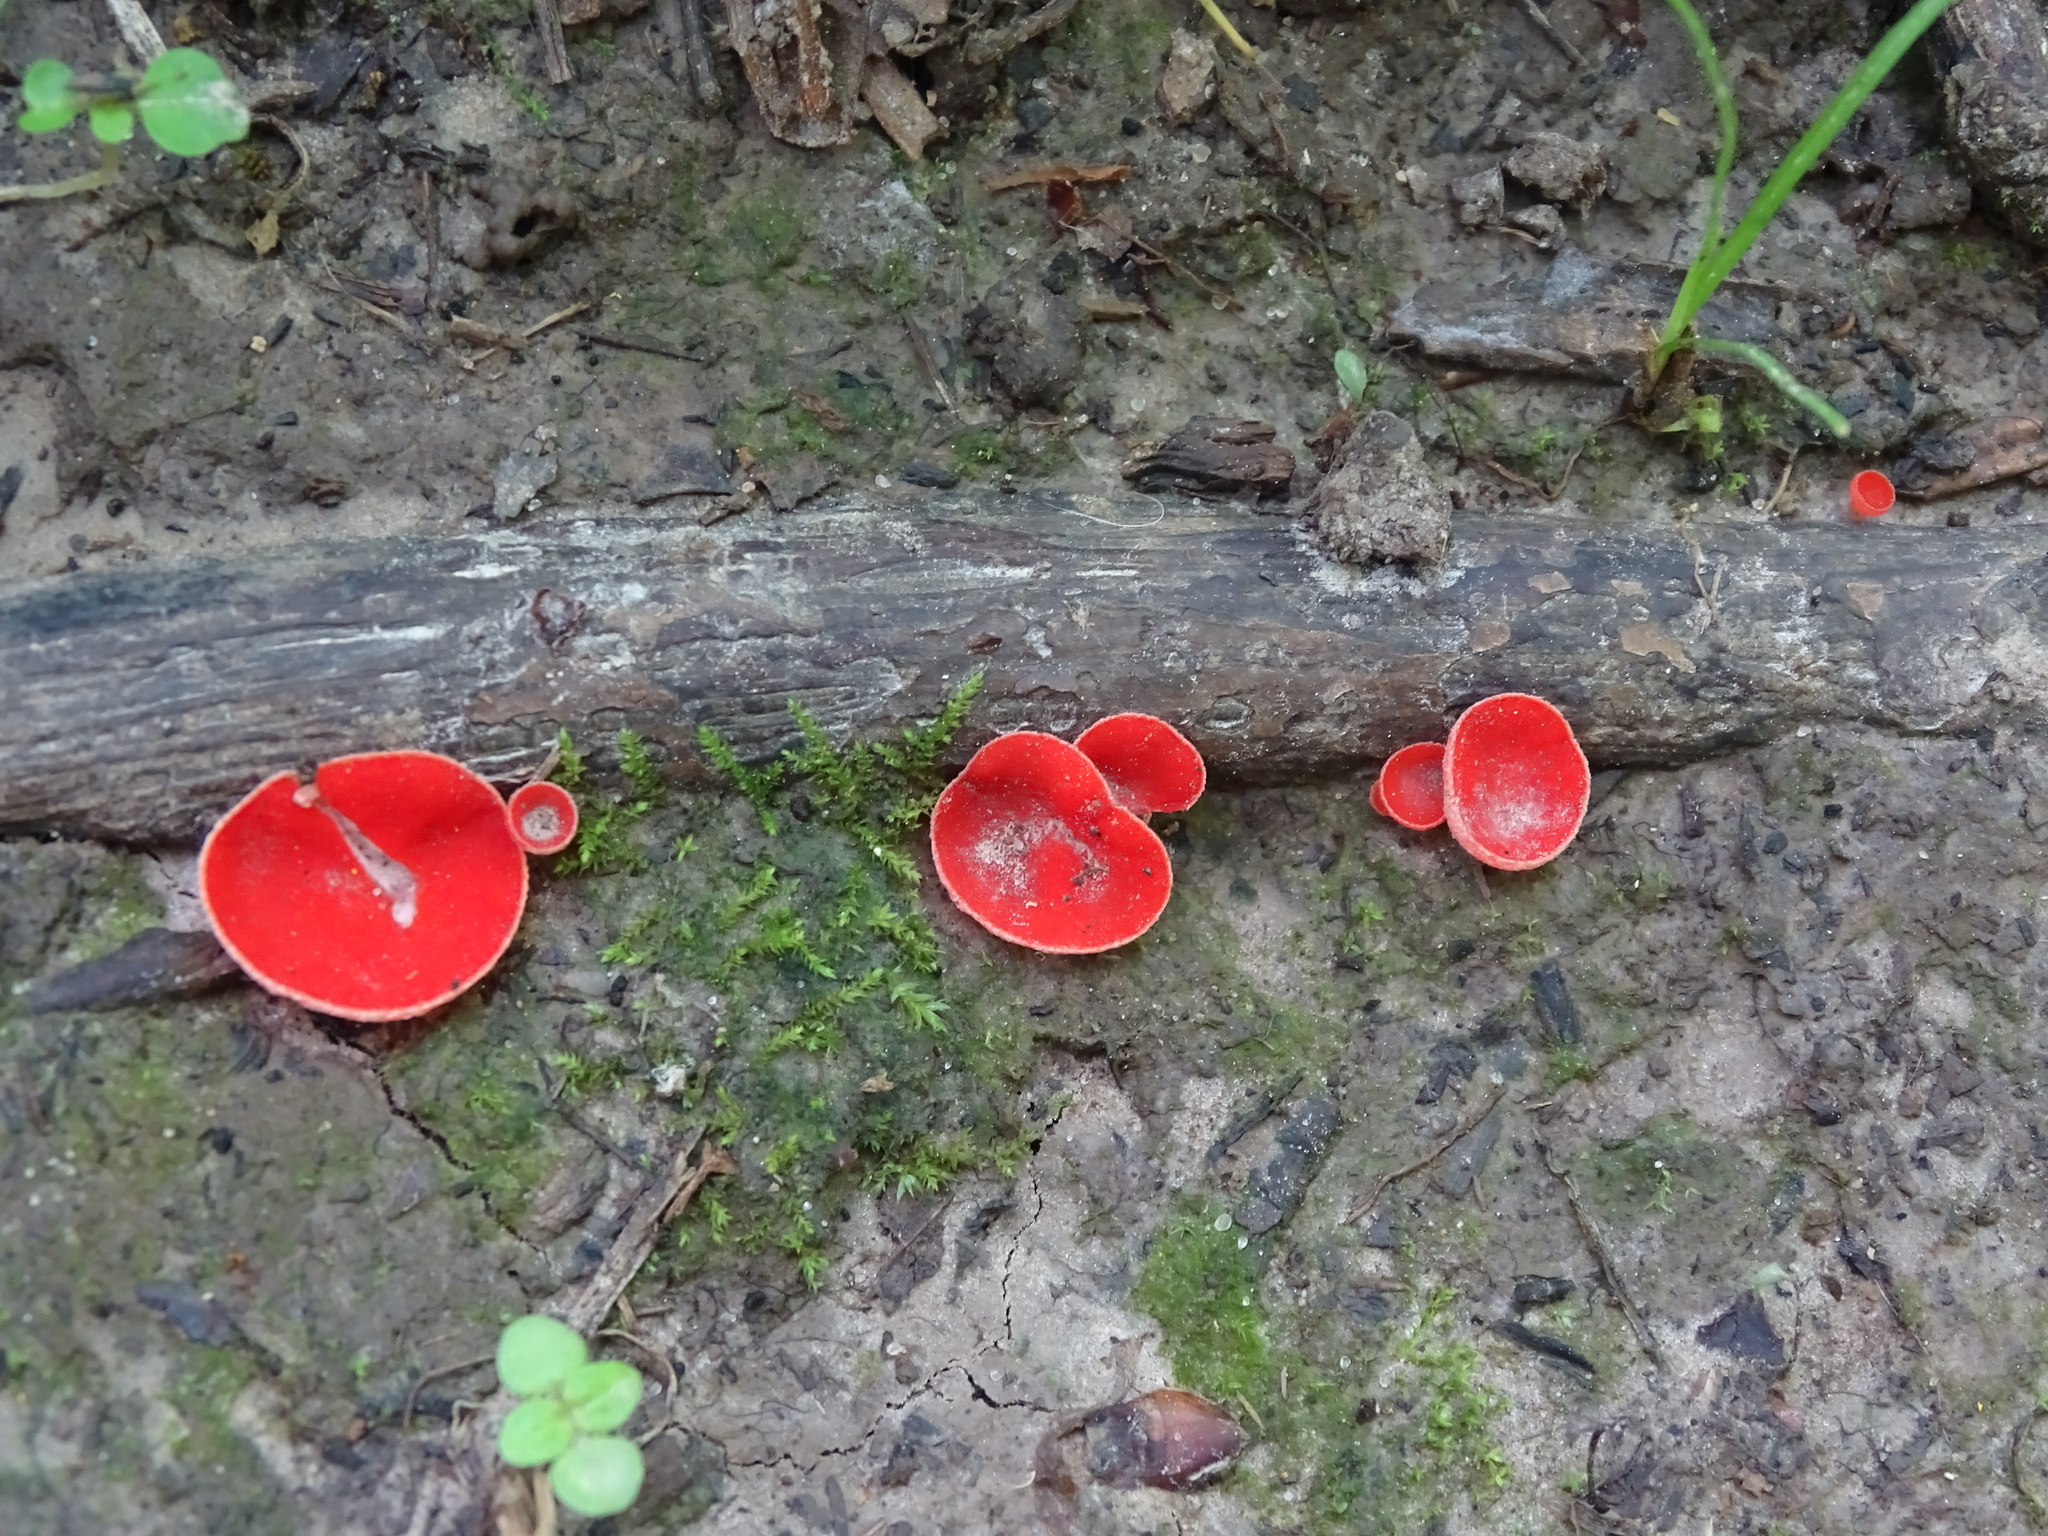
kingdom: Fungi
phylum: Ascomycota
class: Pezizomycetes
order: Pezizales
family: Sarcoscyphaceae
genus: Sarcoscypha
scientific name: Sarcoscypha occidentalis
